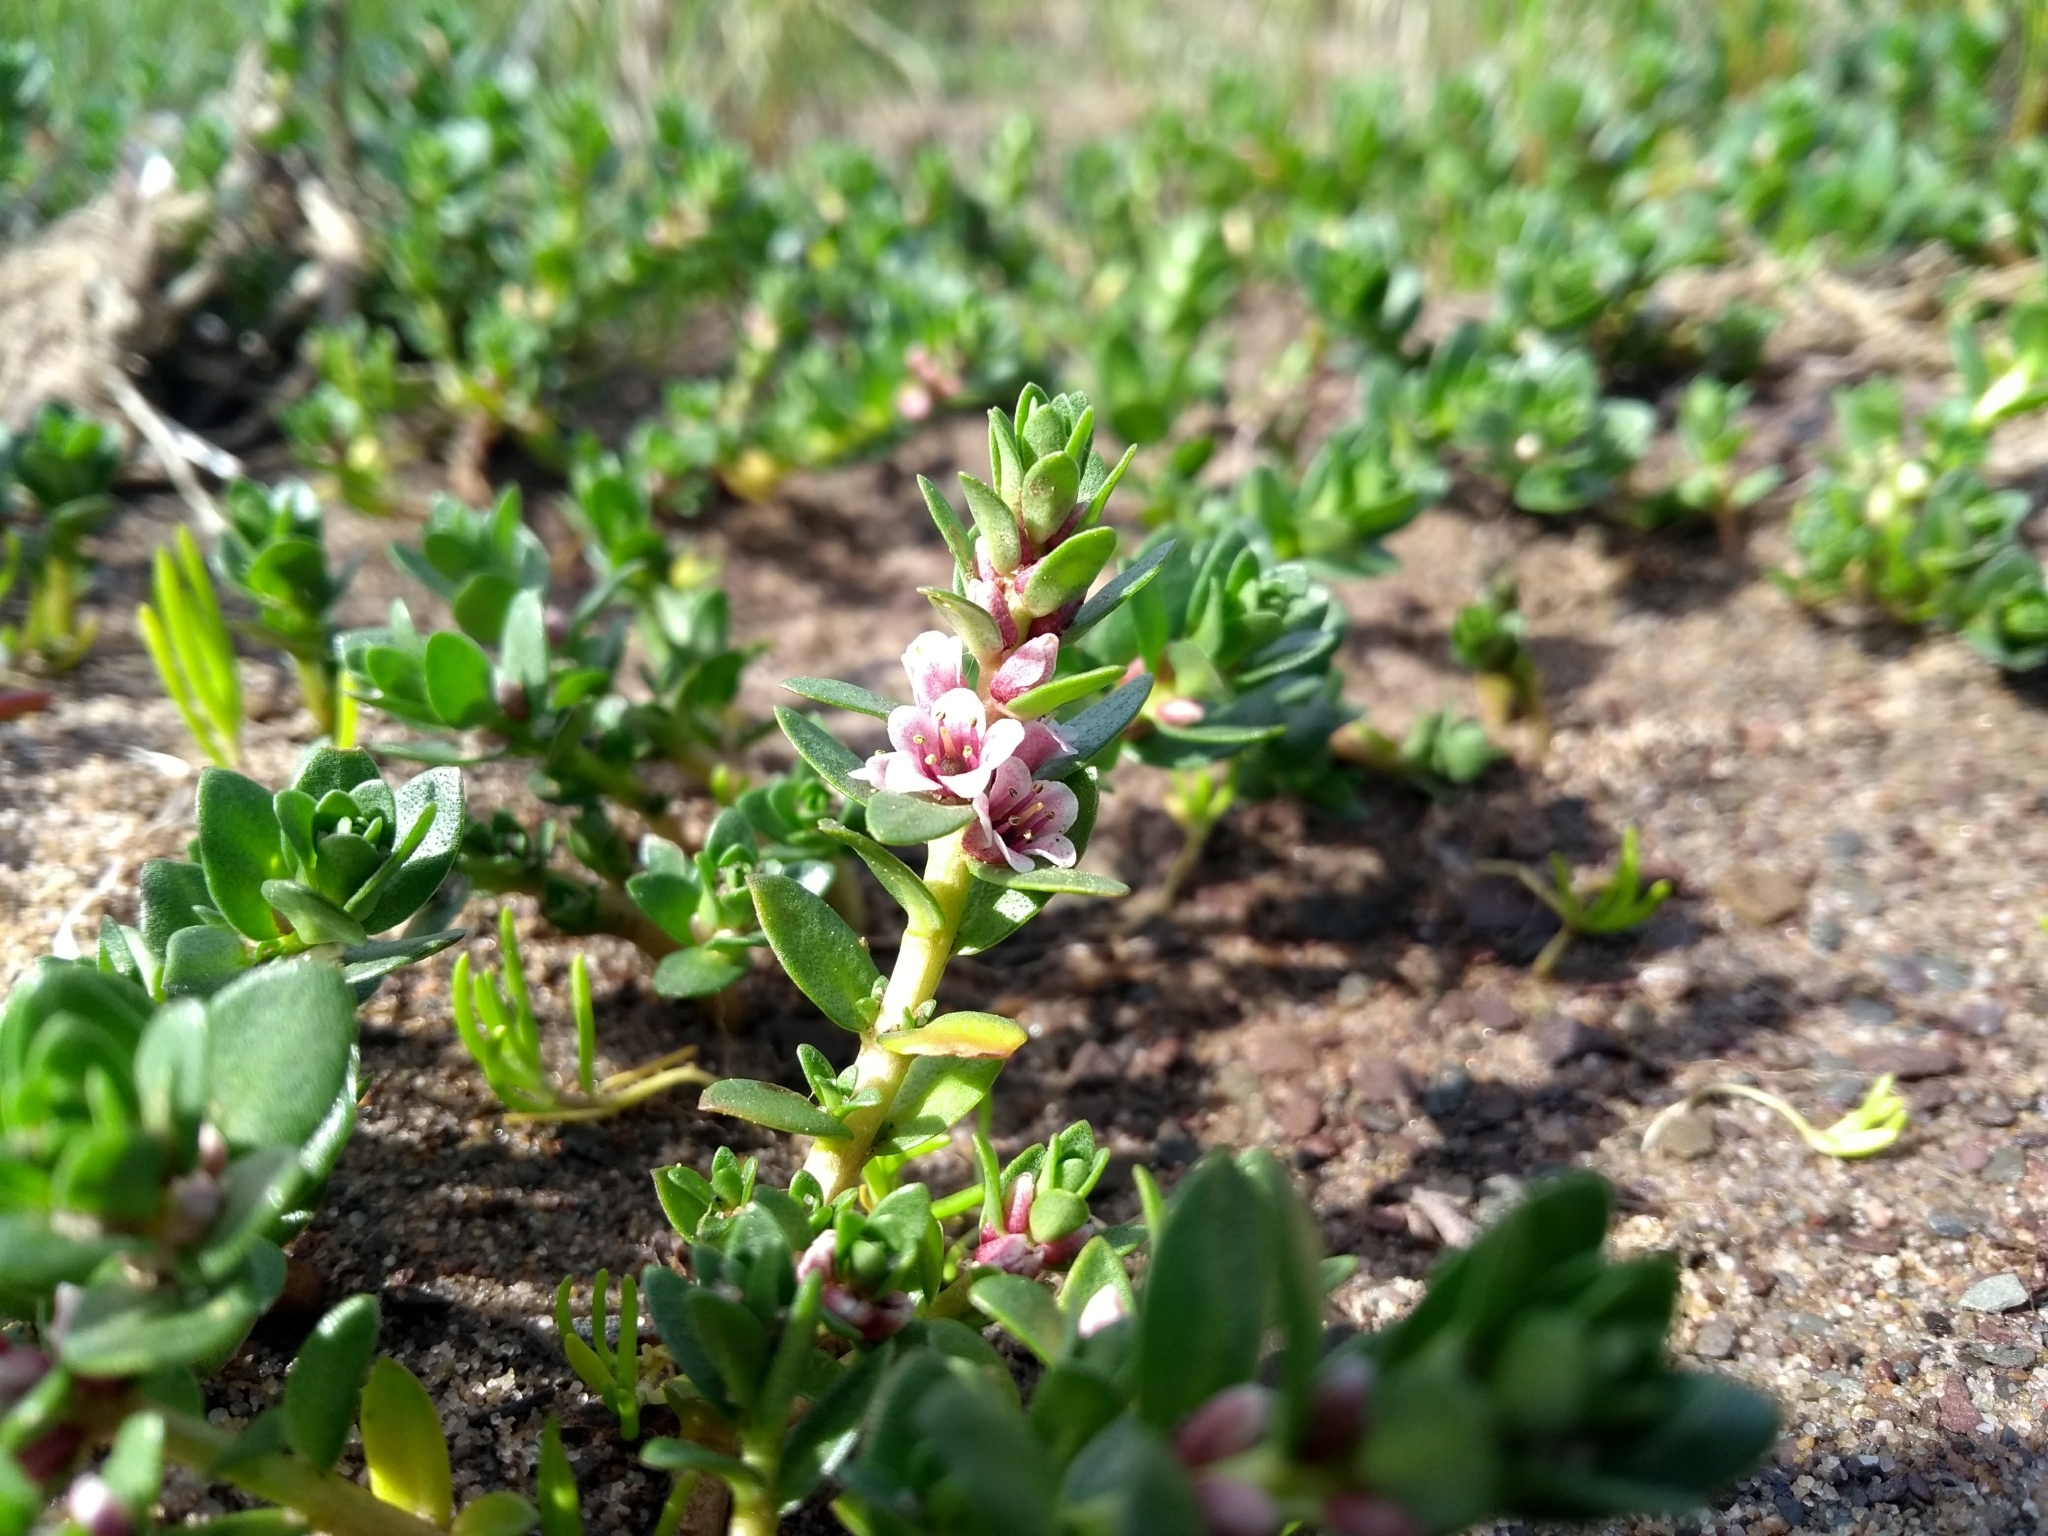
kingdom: Plantae
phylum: Tracheophyta
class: Magnoliopsida
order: Ericales
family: Primulaceae
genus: Lysimachia
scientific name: Lysimachia maritima
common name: Sea milkwort
